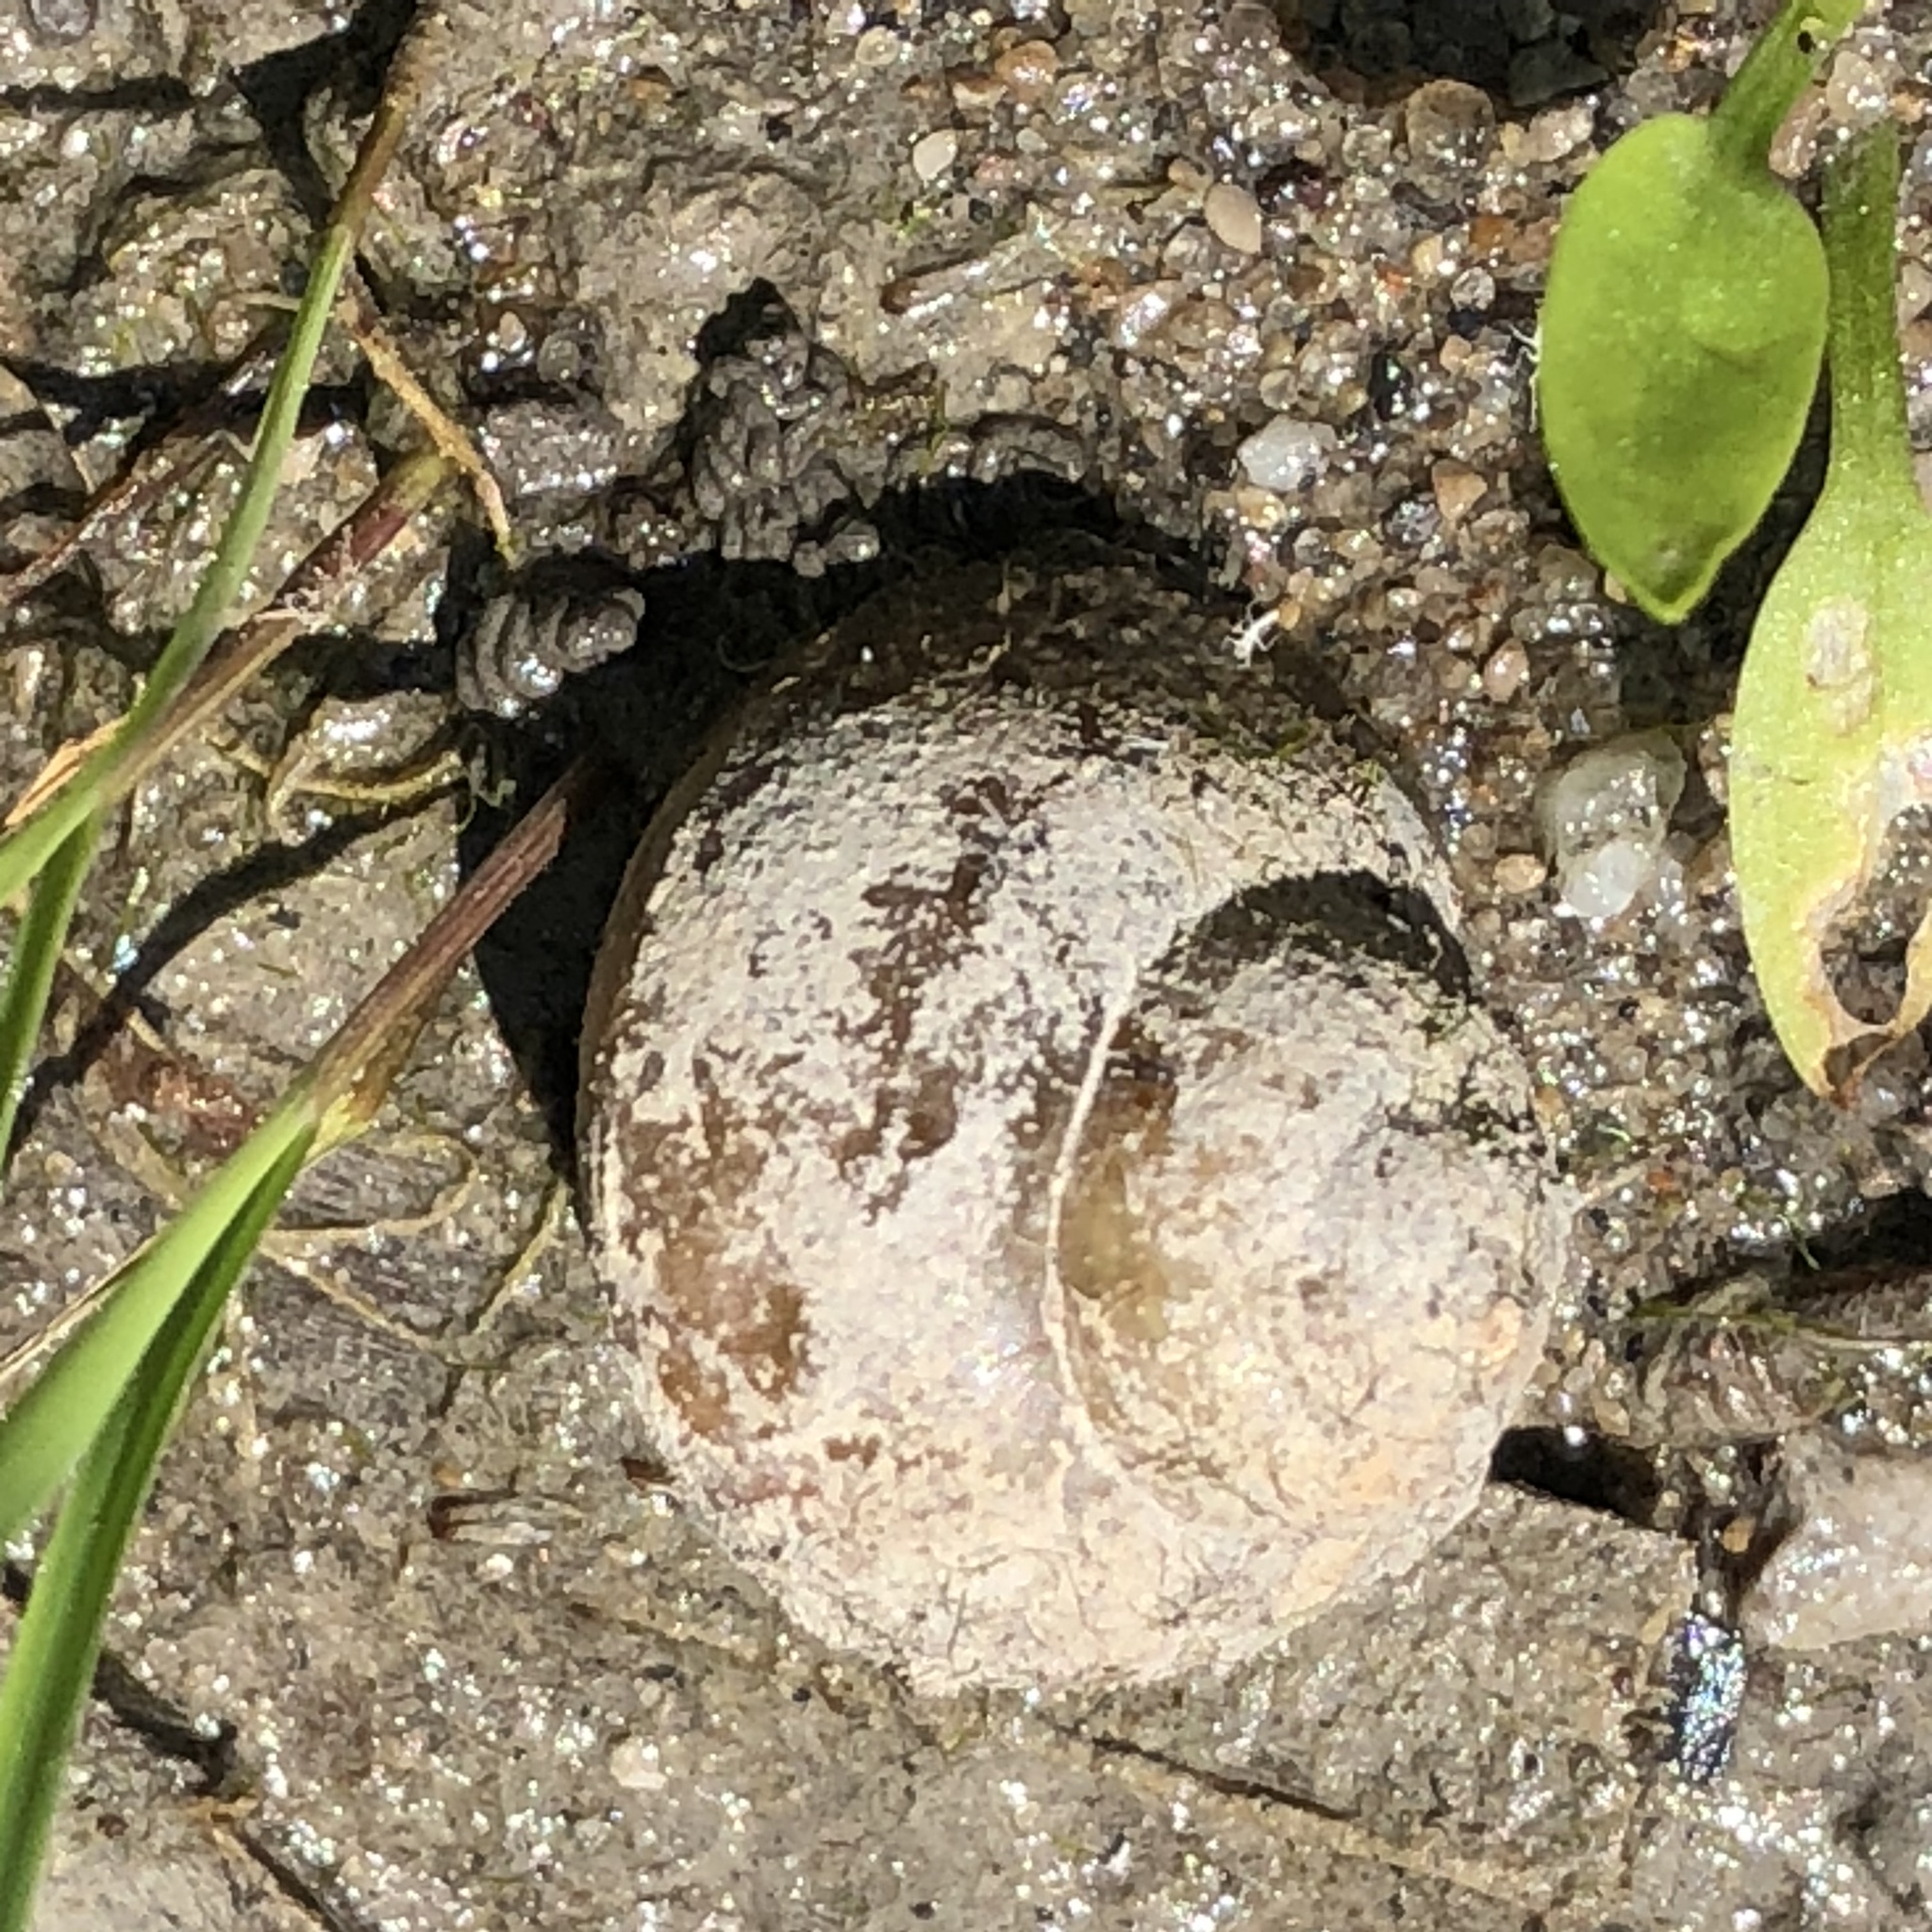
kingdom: Animalia
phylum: Mollusca
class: Gastropoda
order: Architaenioglossa
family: Viviparidae
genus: Cipangopaludina
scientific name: Cipangopaludina chinensis
